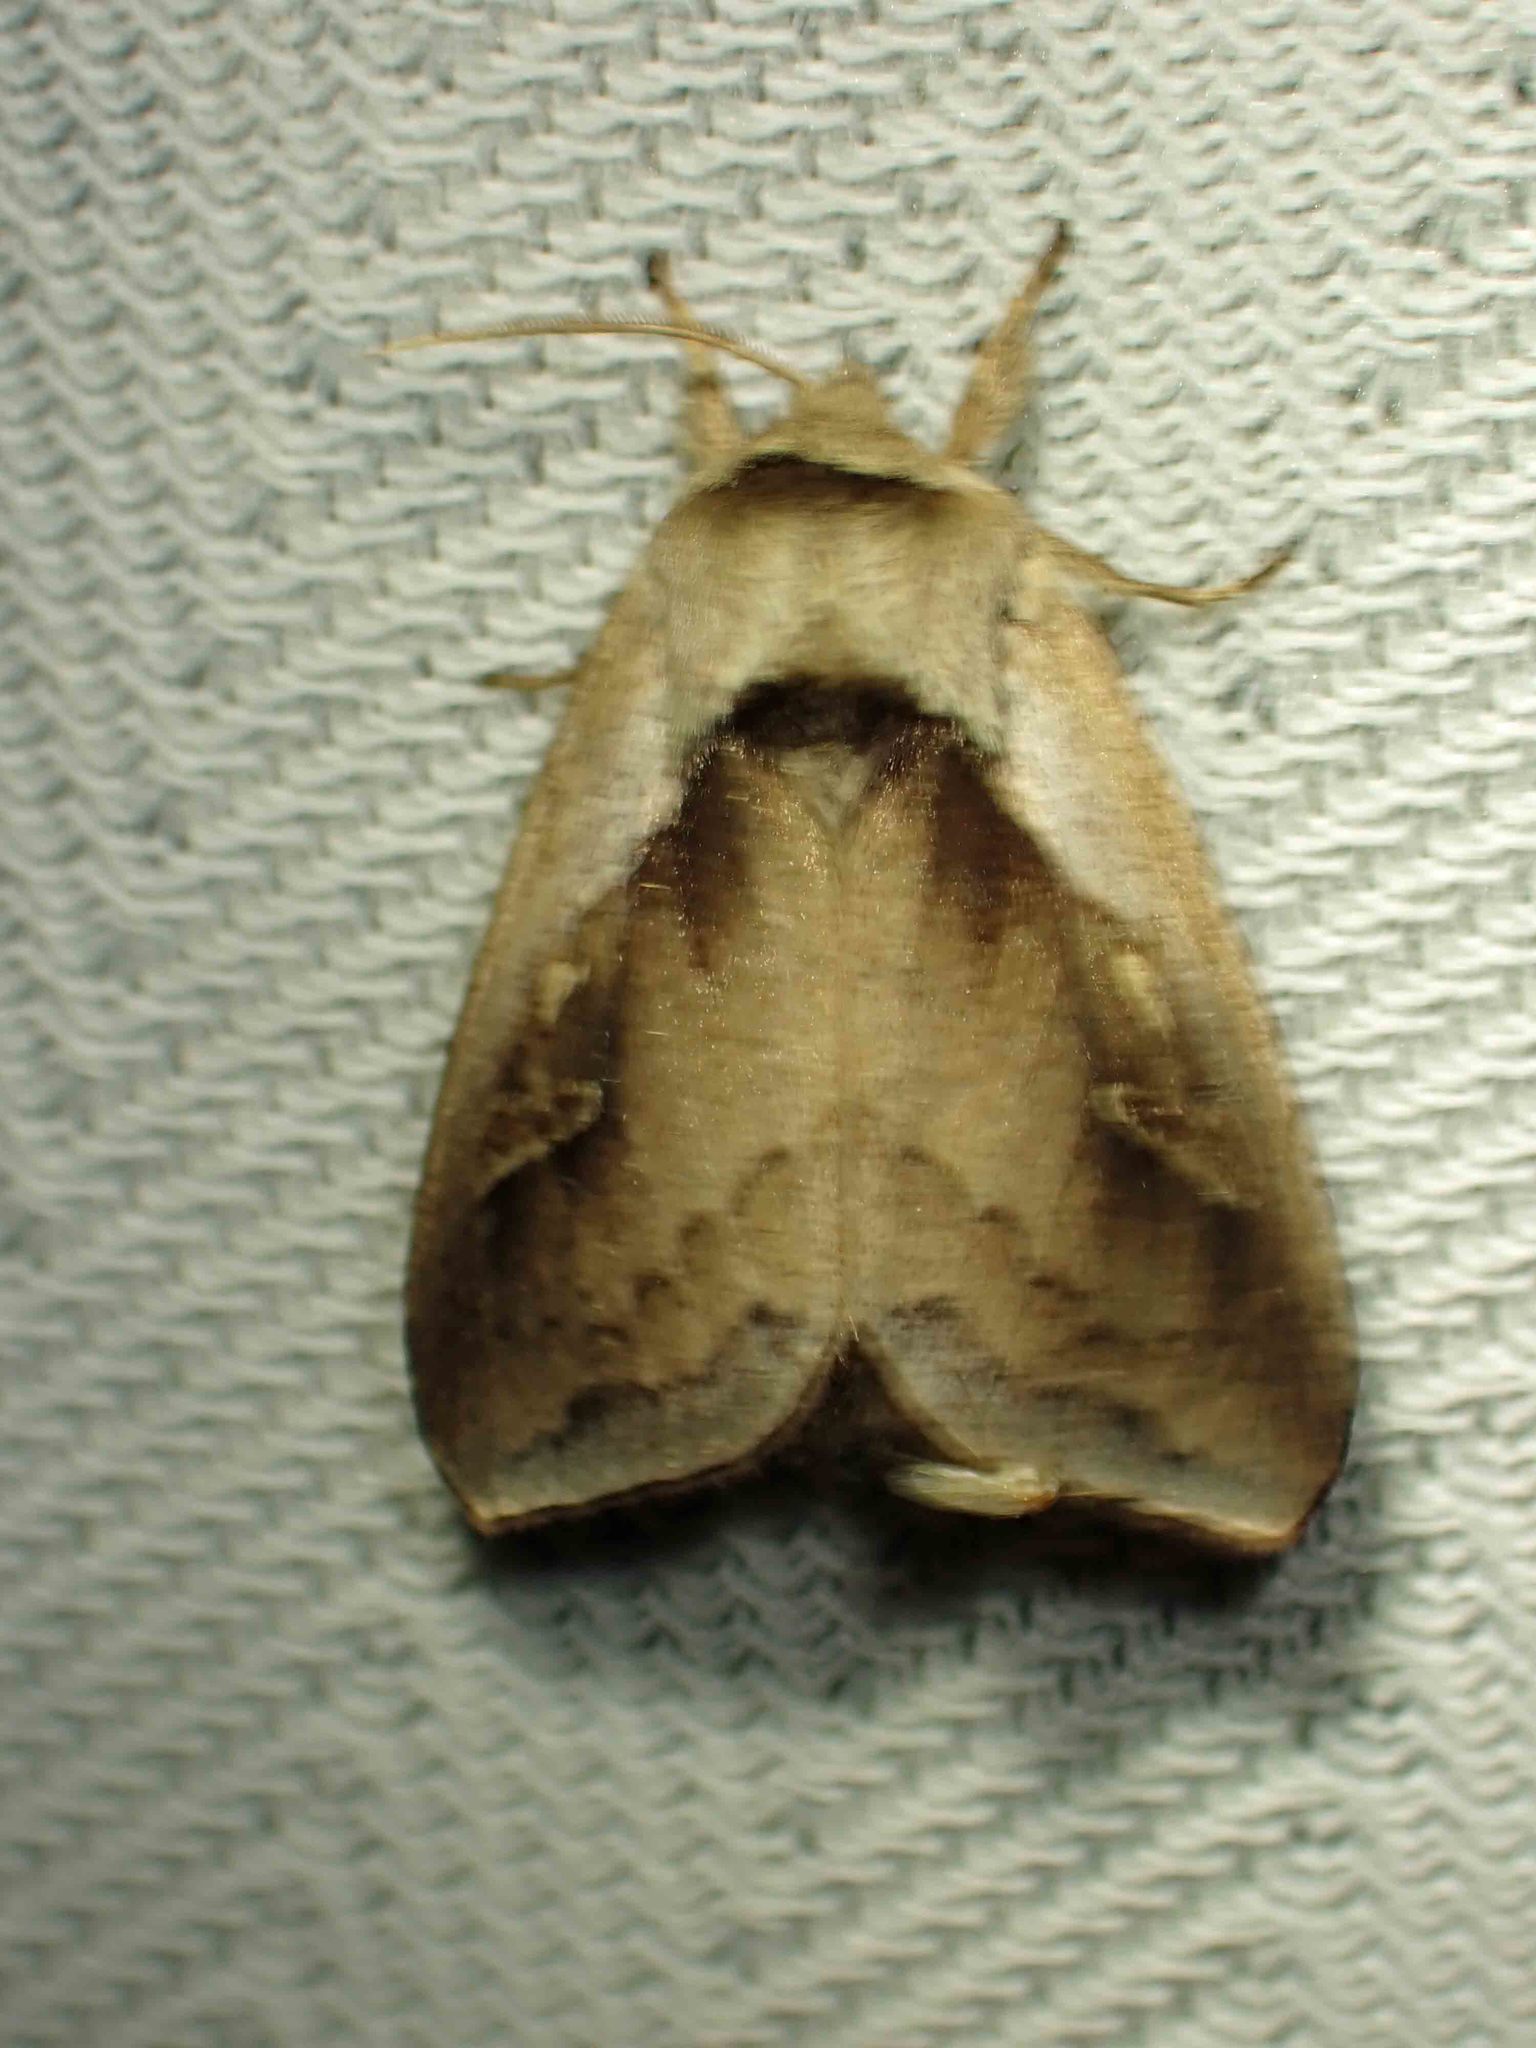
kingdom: Animalia
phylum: Arthropoda
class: Insecta
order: Lepidoptera
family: Noctuidae
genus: Bellura
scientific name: Bellura obliqua
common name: Cattail borer moth
